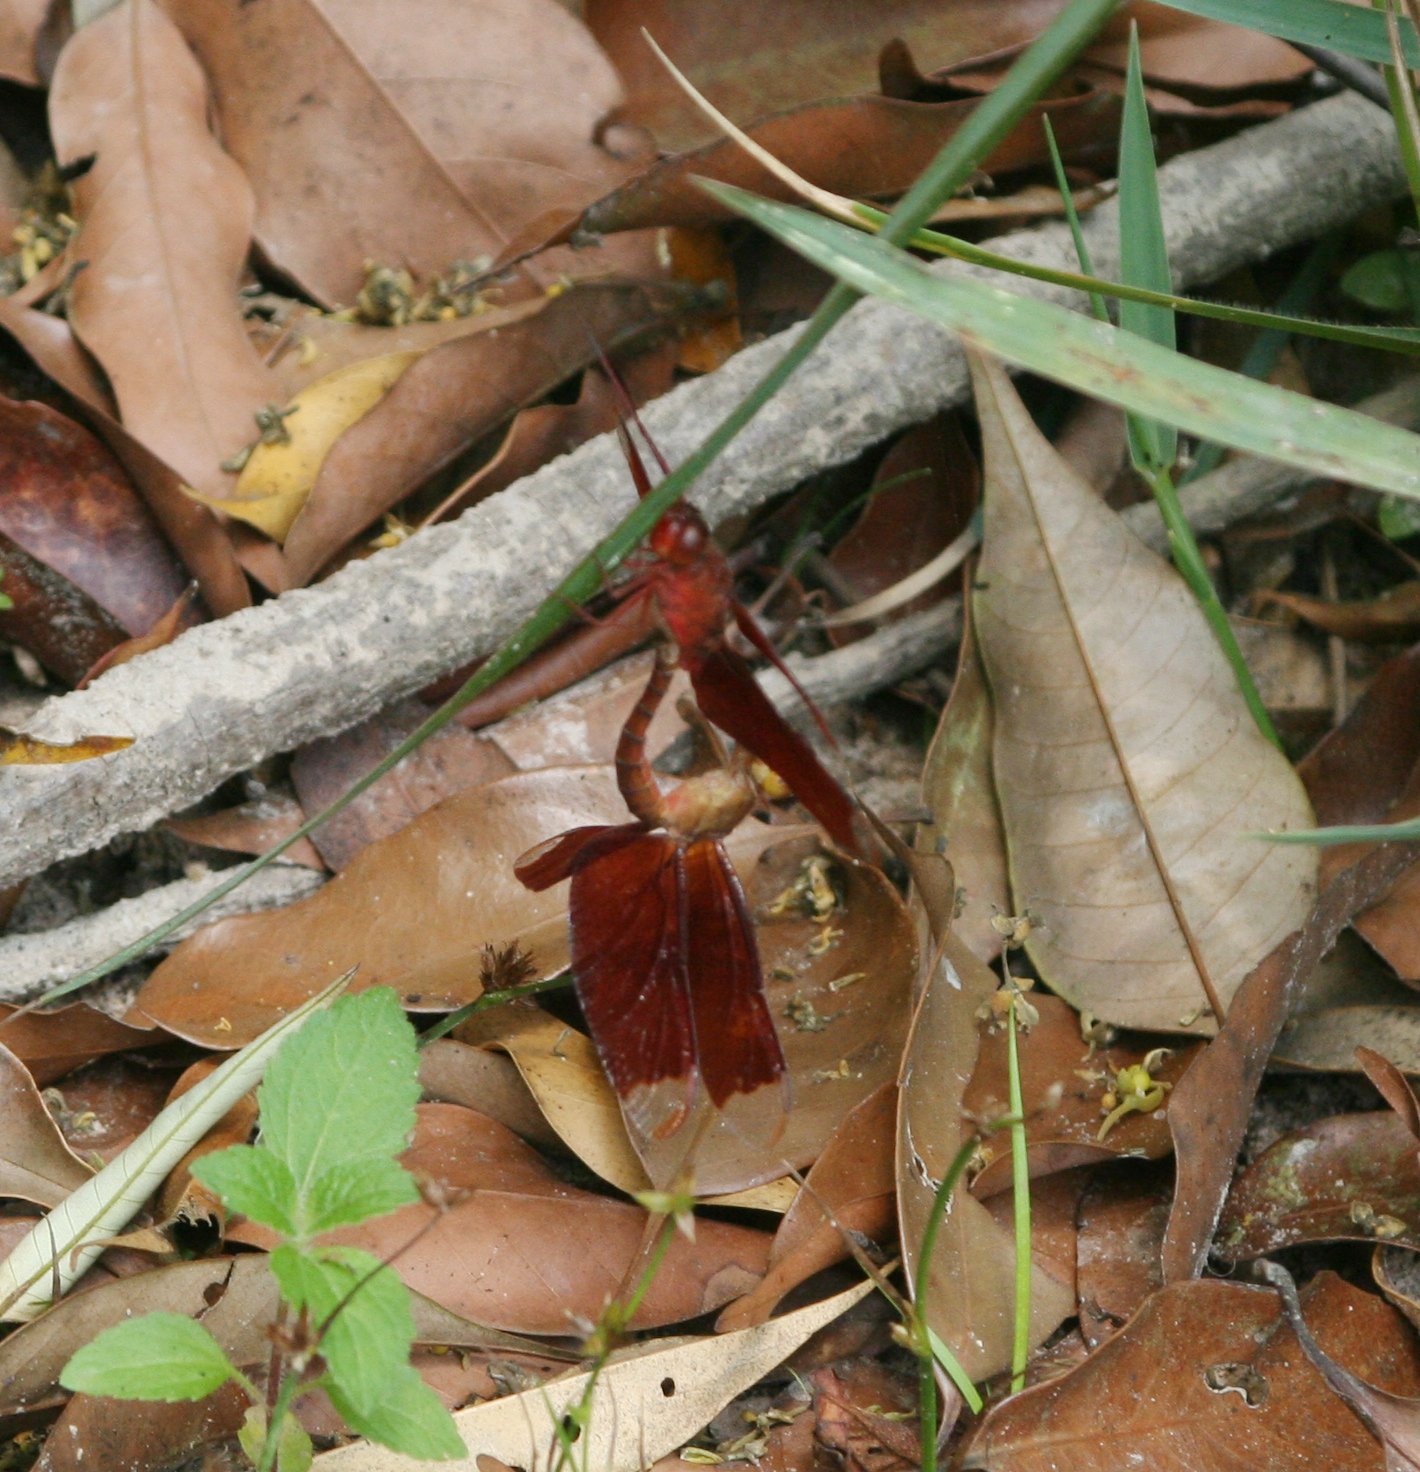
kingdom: Animalia
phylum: Arthropoda
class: Insecta
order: Odonata
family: Libellulidae
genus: Neurothemis
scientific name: Neurothemis fulvia
